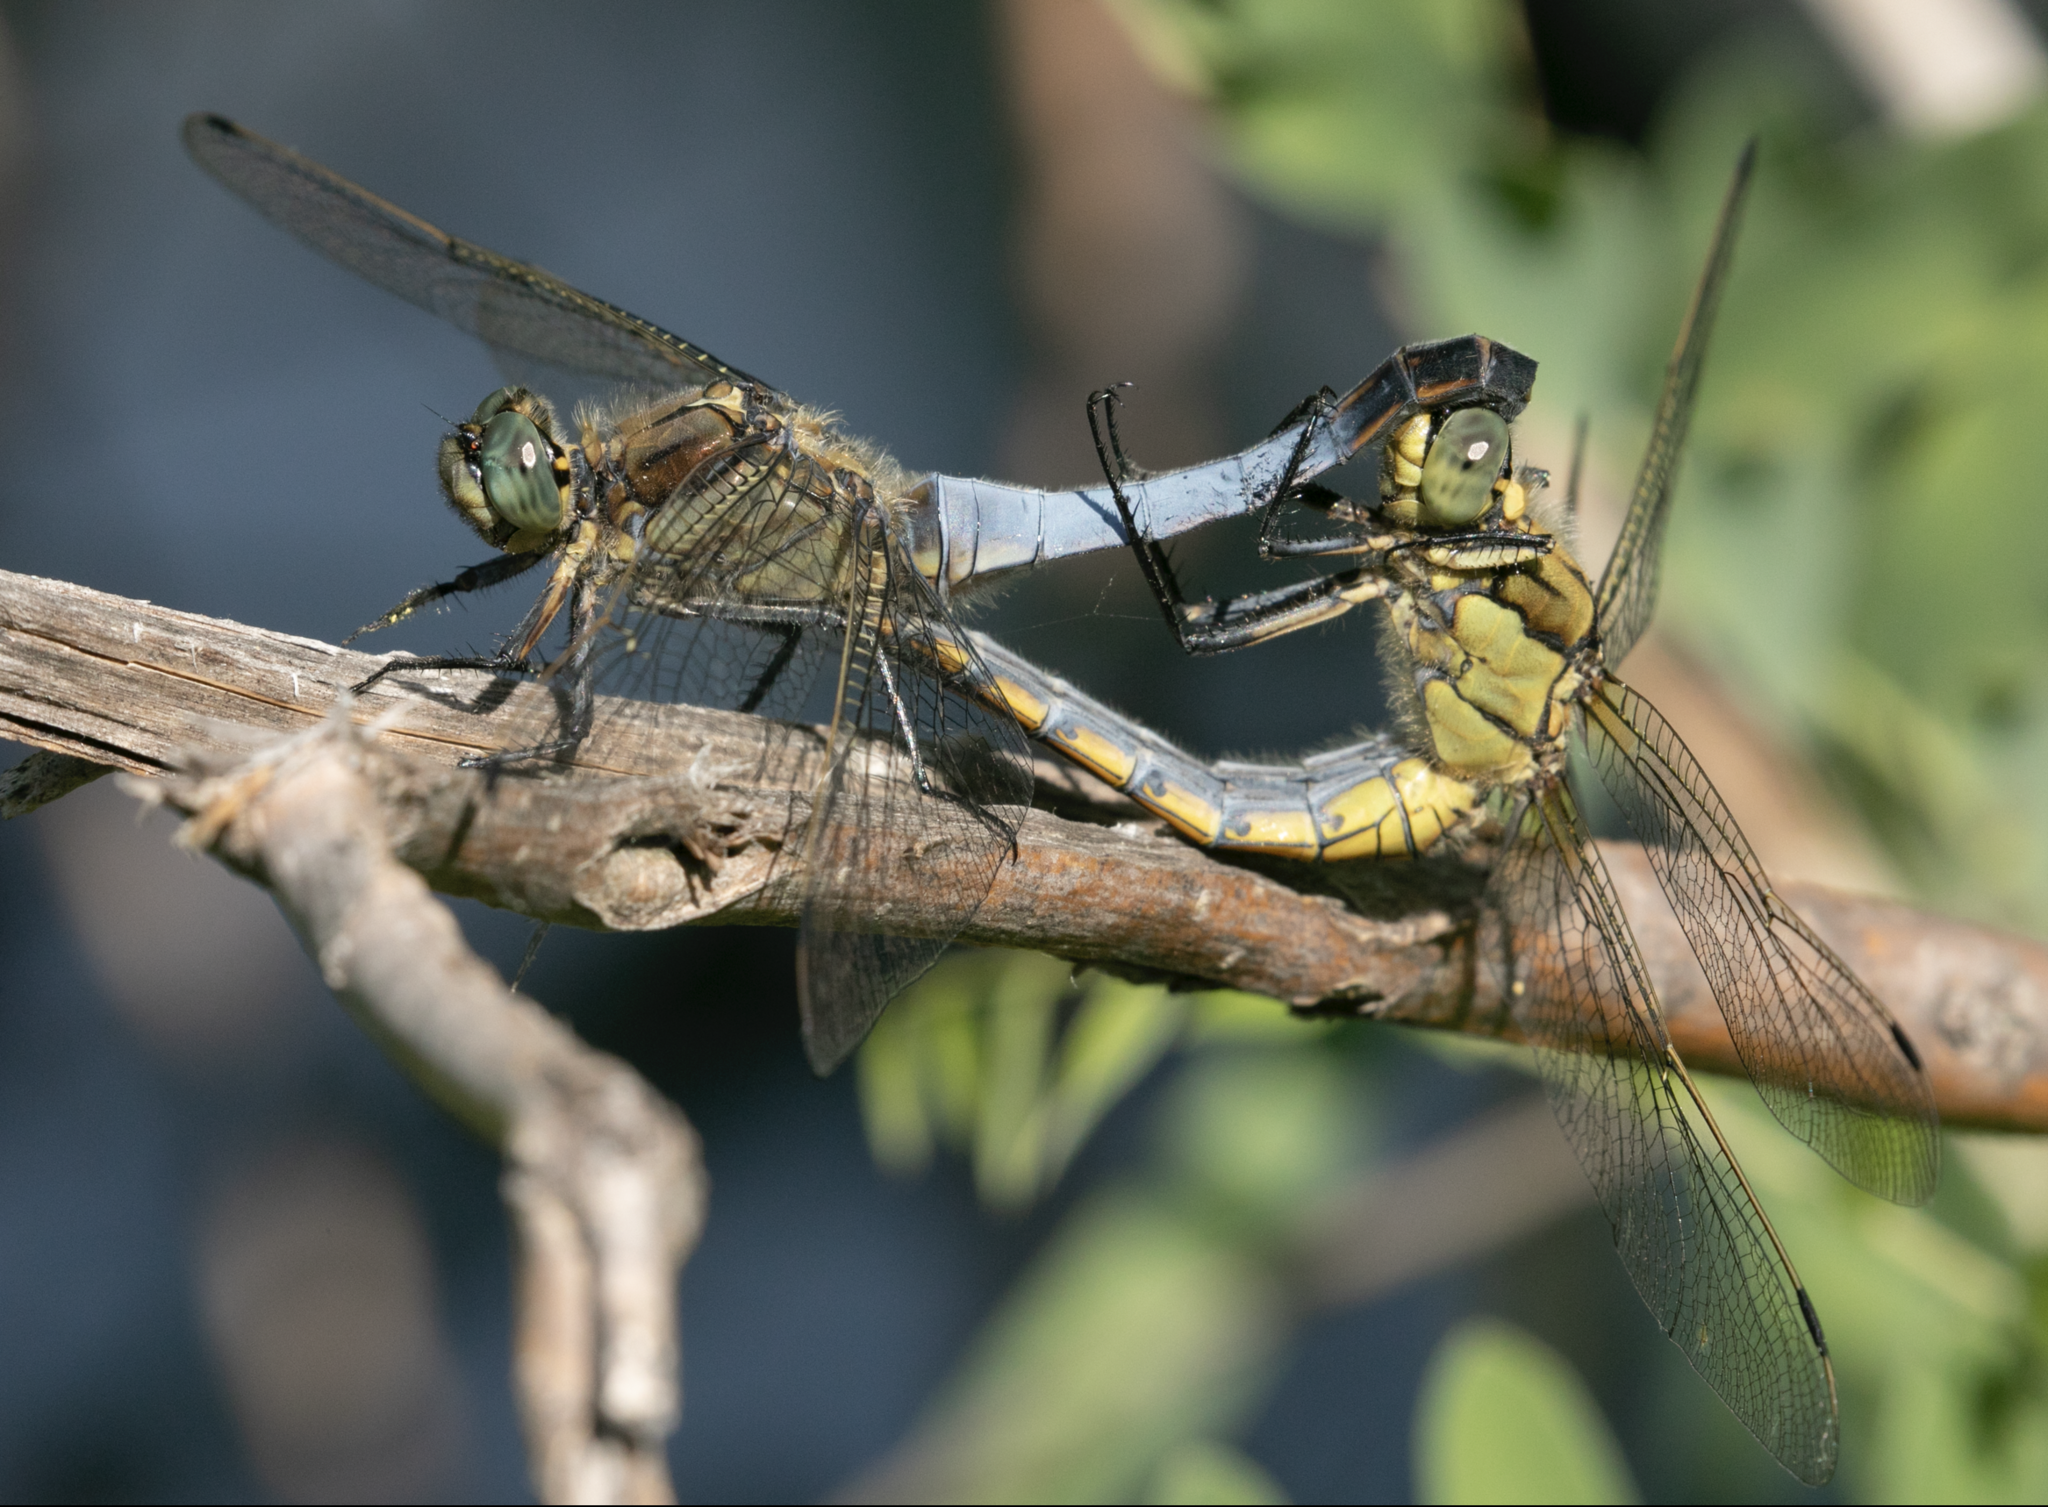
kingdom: Animalia
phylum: Arthropoda
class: Insecta
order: Odonata
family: Libellulidae
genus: Orthetrum
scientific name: Orthetrum cancellatum
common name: Black-tailed skimmer
